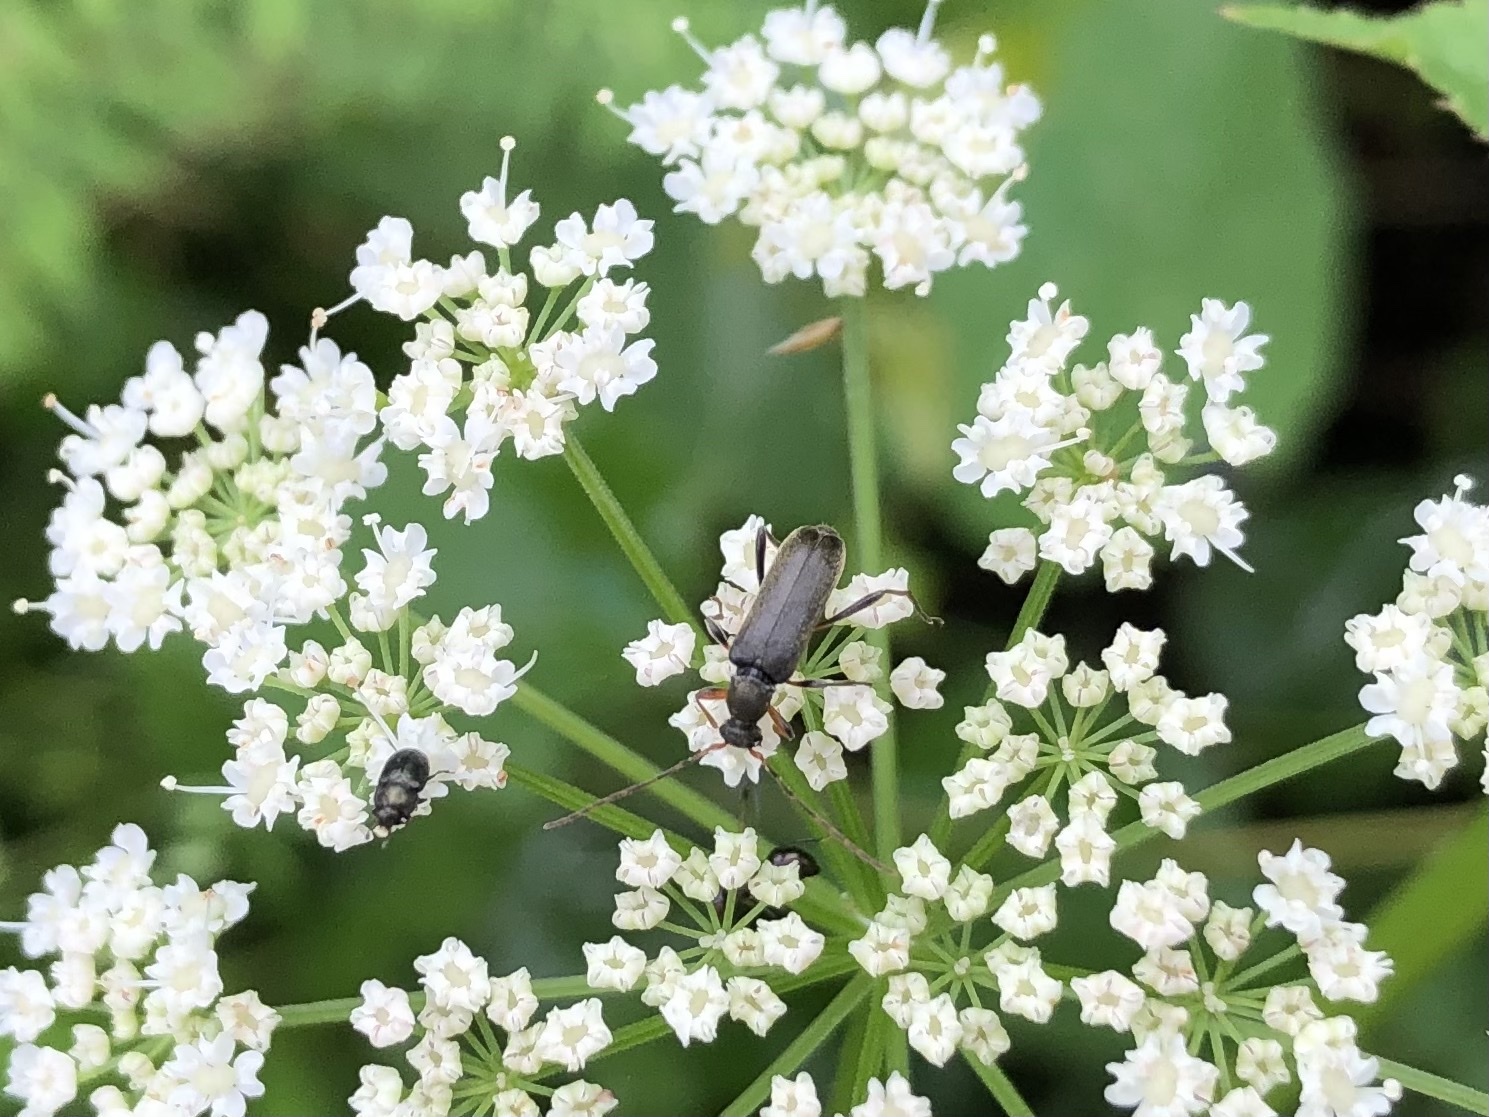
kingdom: Animalia
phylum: Arthropoda
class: Insecta
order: Coleoptera
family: Cerambycidae
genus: Grammoptera
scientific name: Grammoptera ruficornis
